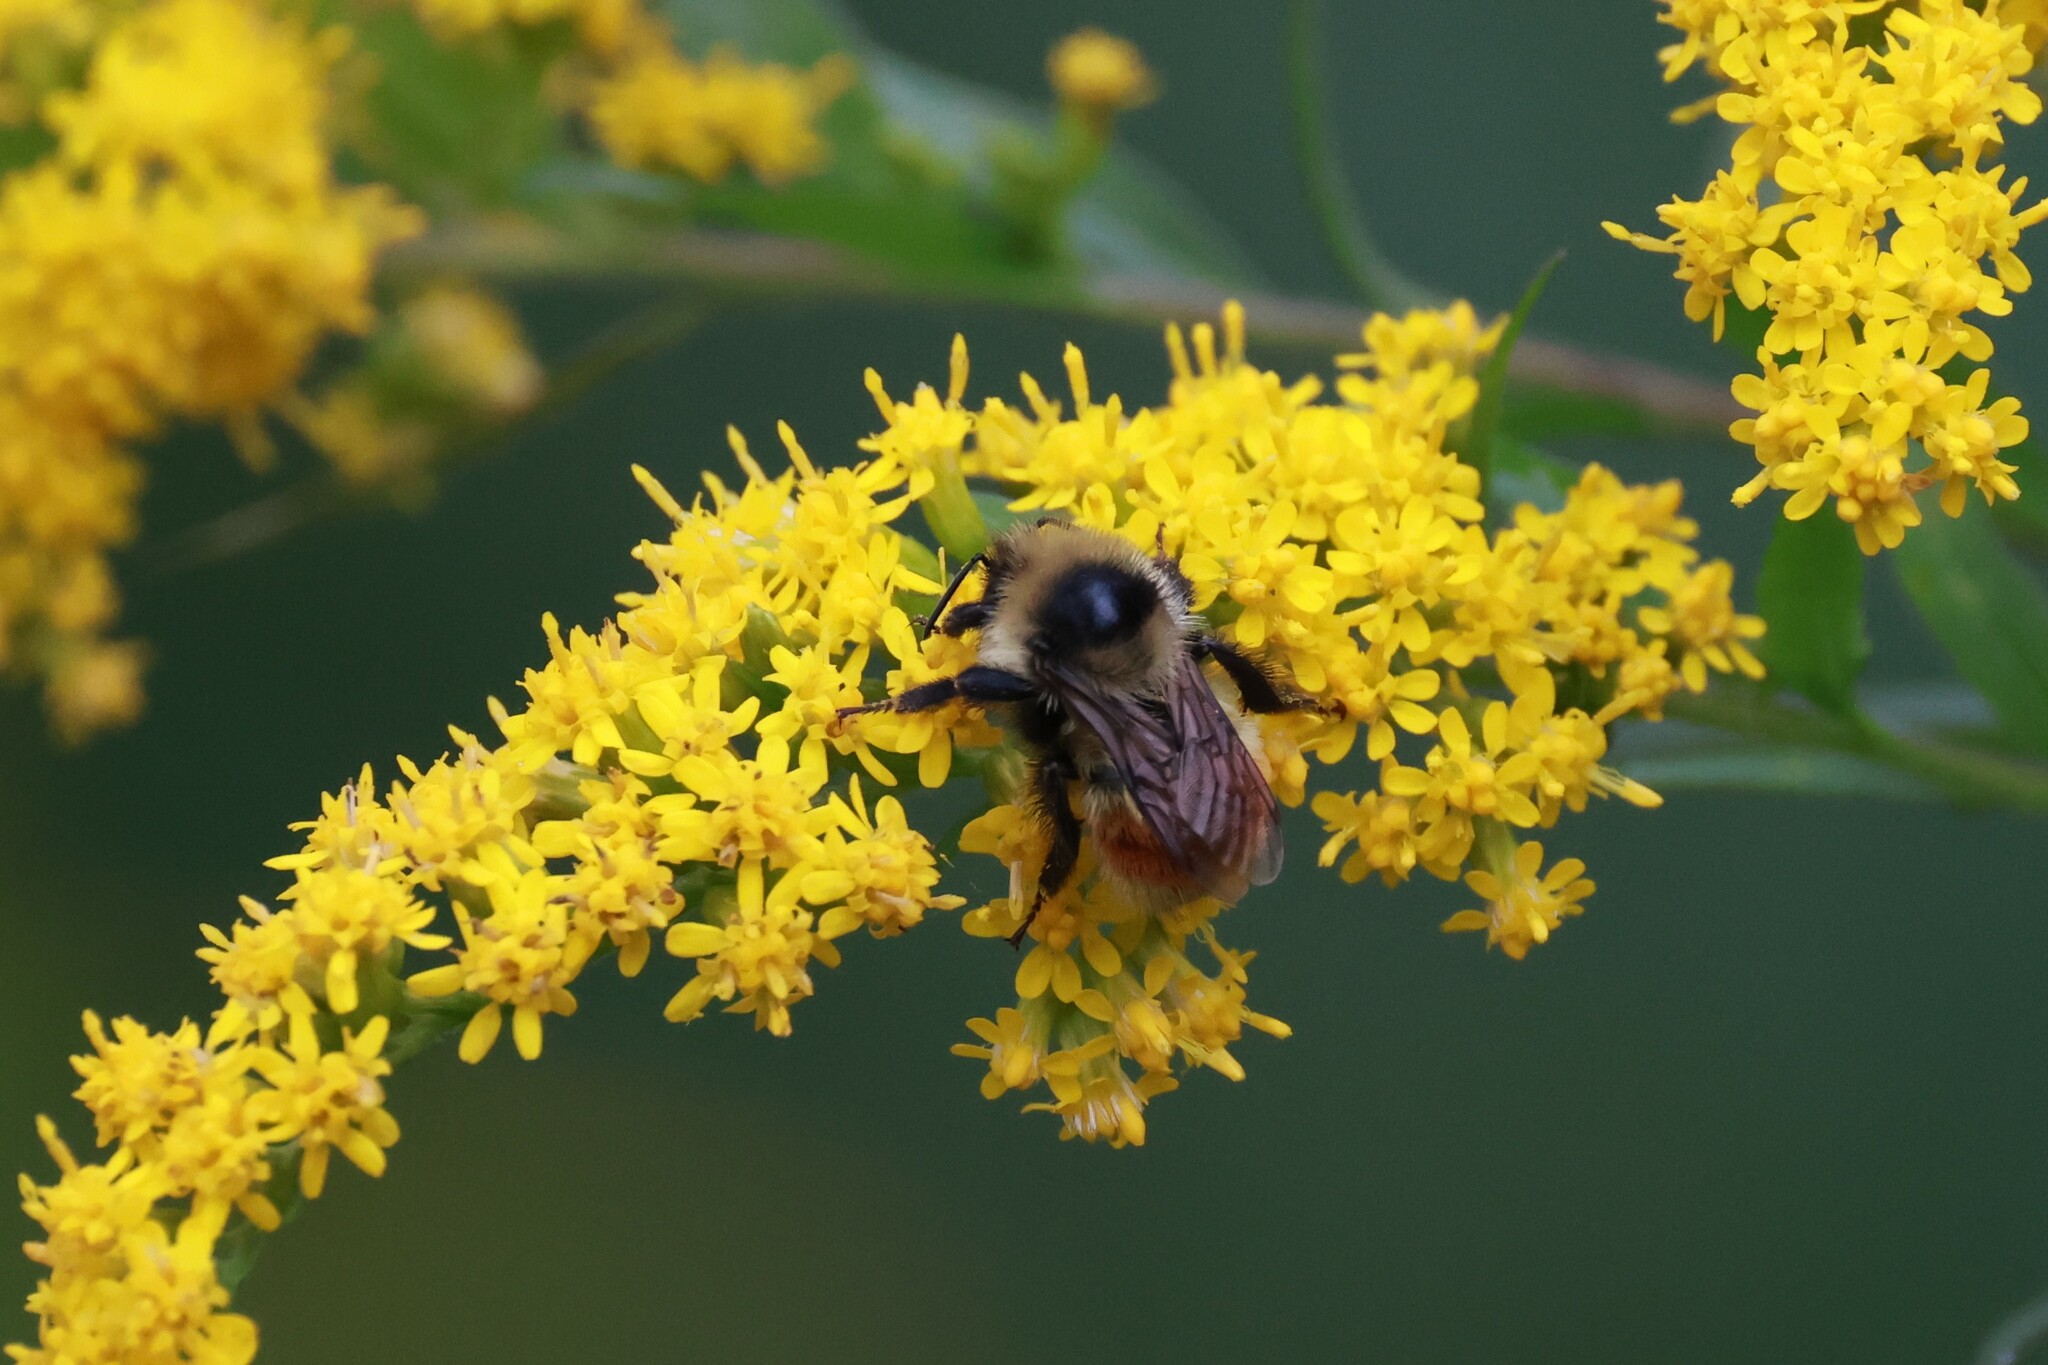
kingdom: Animalia
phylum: Arthropoda
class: Insecta
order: Hymenoptera
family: Apidae
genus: Bombus
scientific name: Bombus rufocinctus
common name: Red-belted bumble bee
